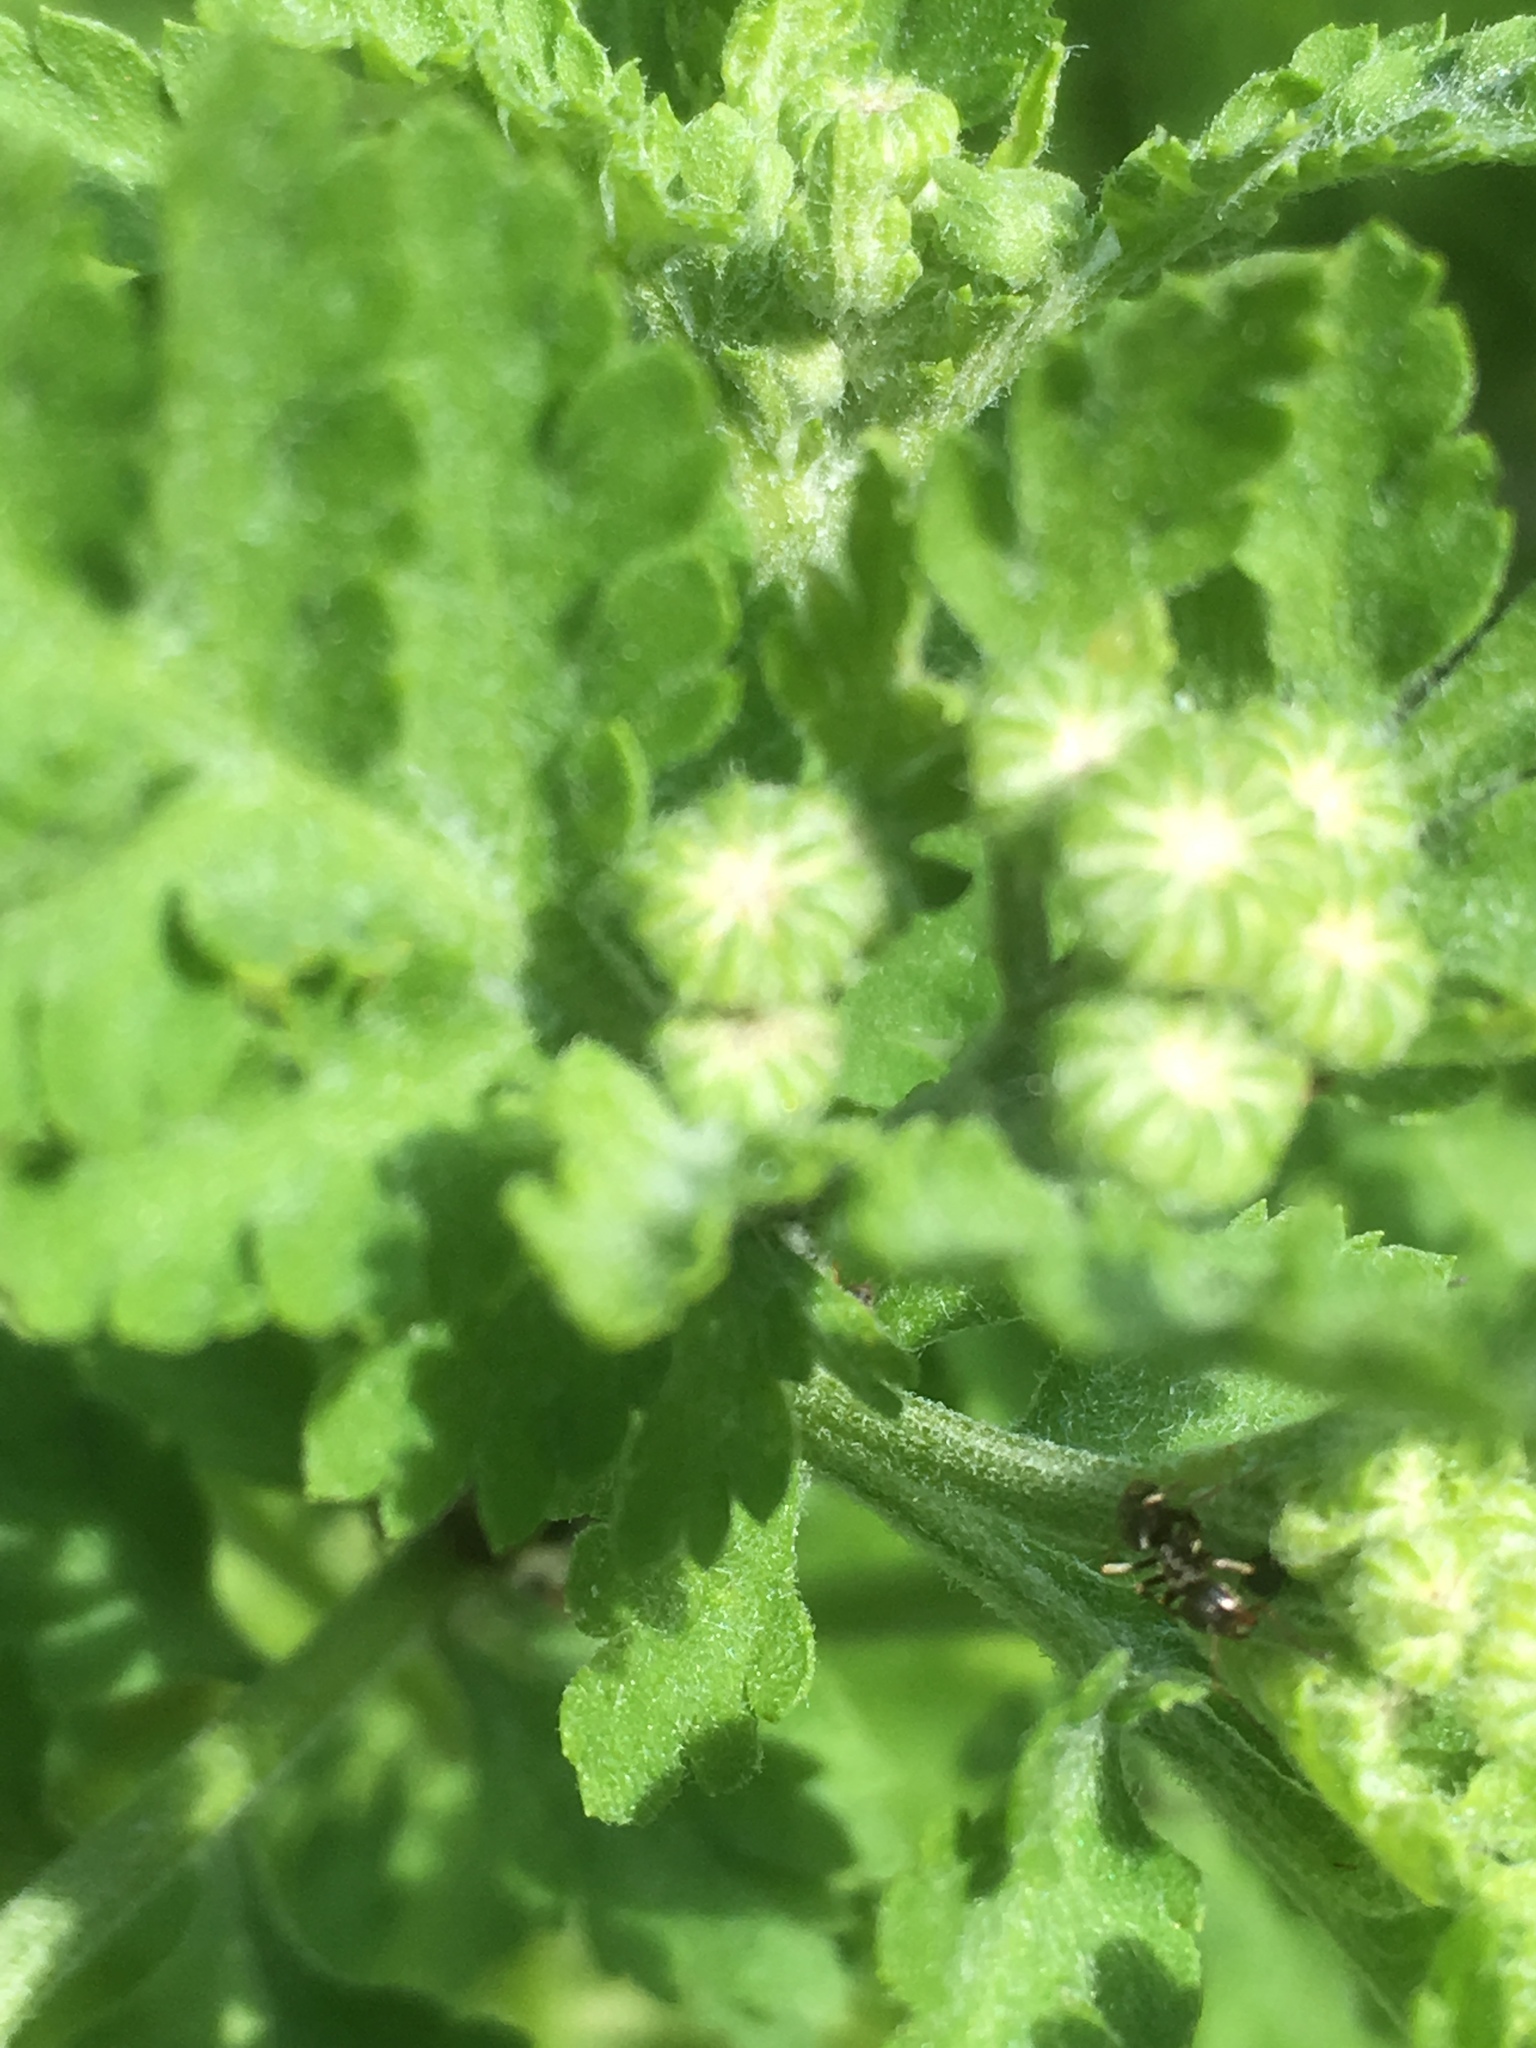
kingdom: Plantae
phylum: Tracheophyta
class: Magnoliopsida
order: Asterales
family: Asteraceae
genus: Tanacetum
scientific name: Tanacetum parthenium
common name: Feverfew
